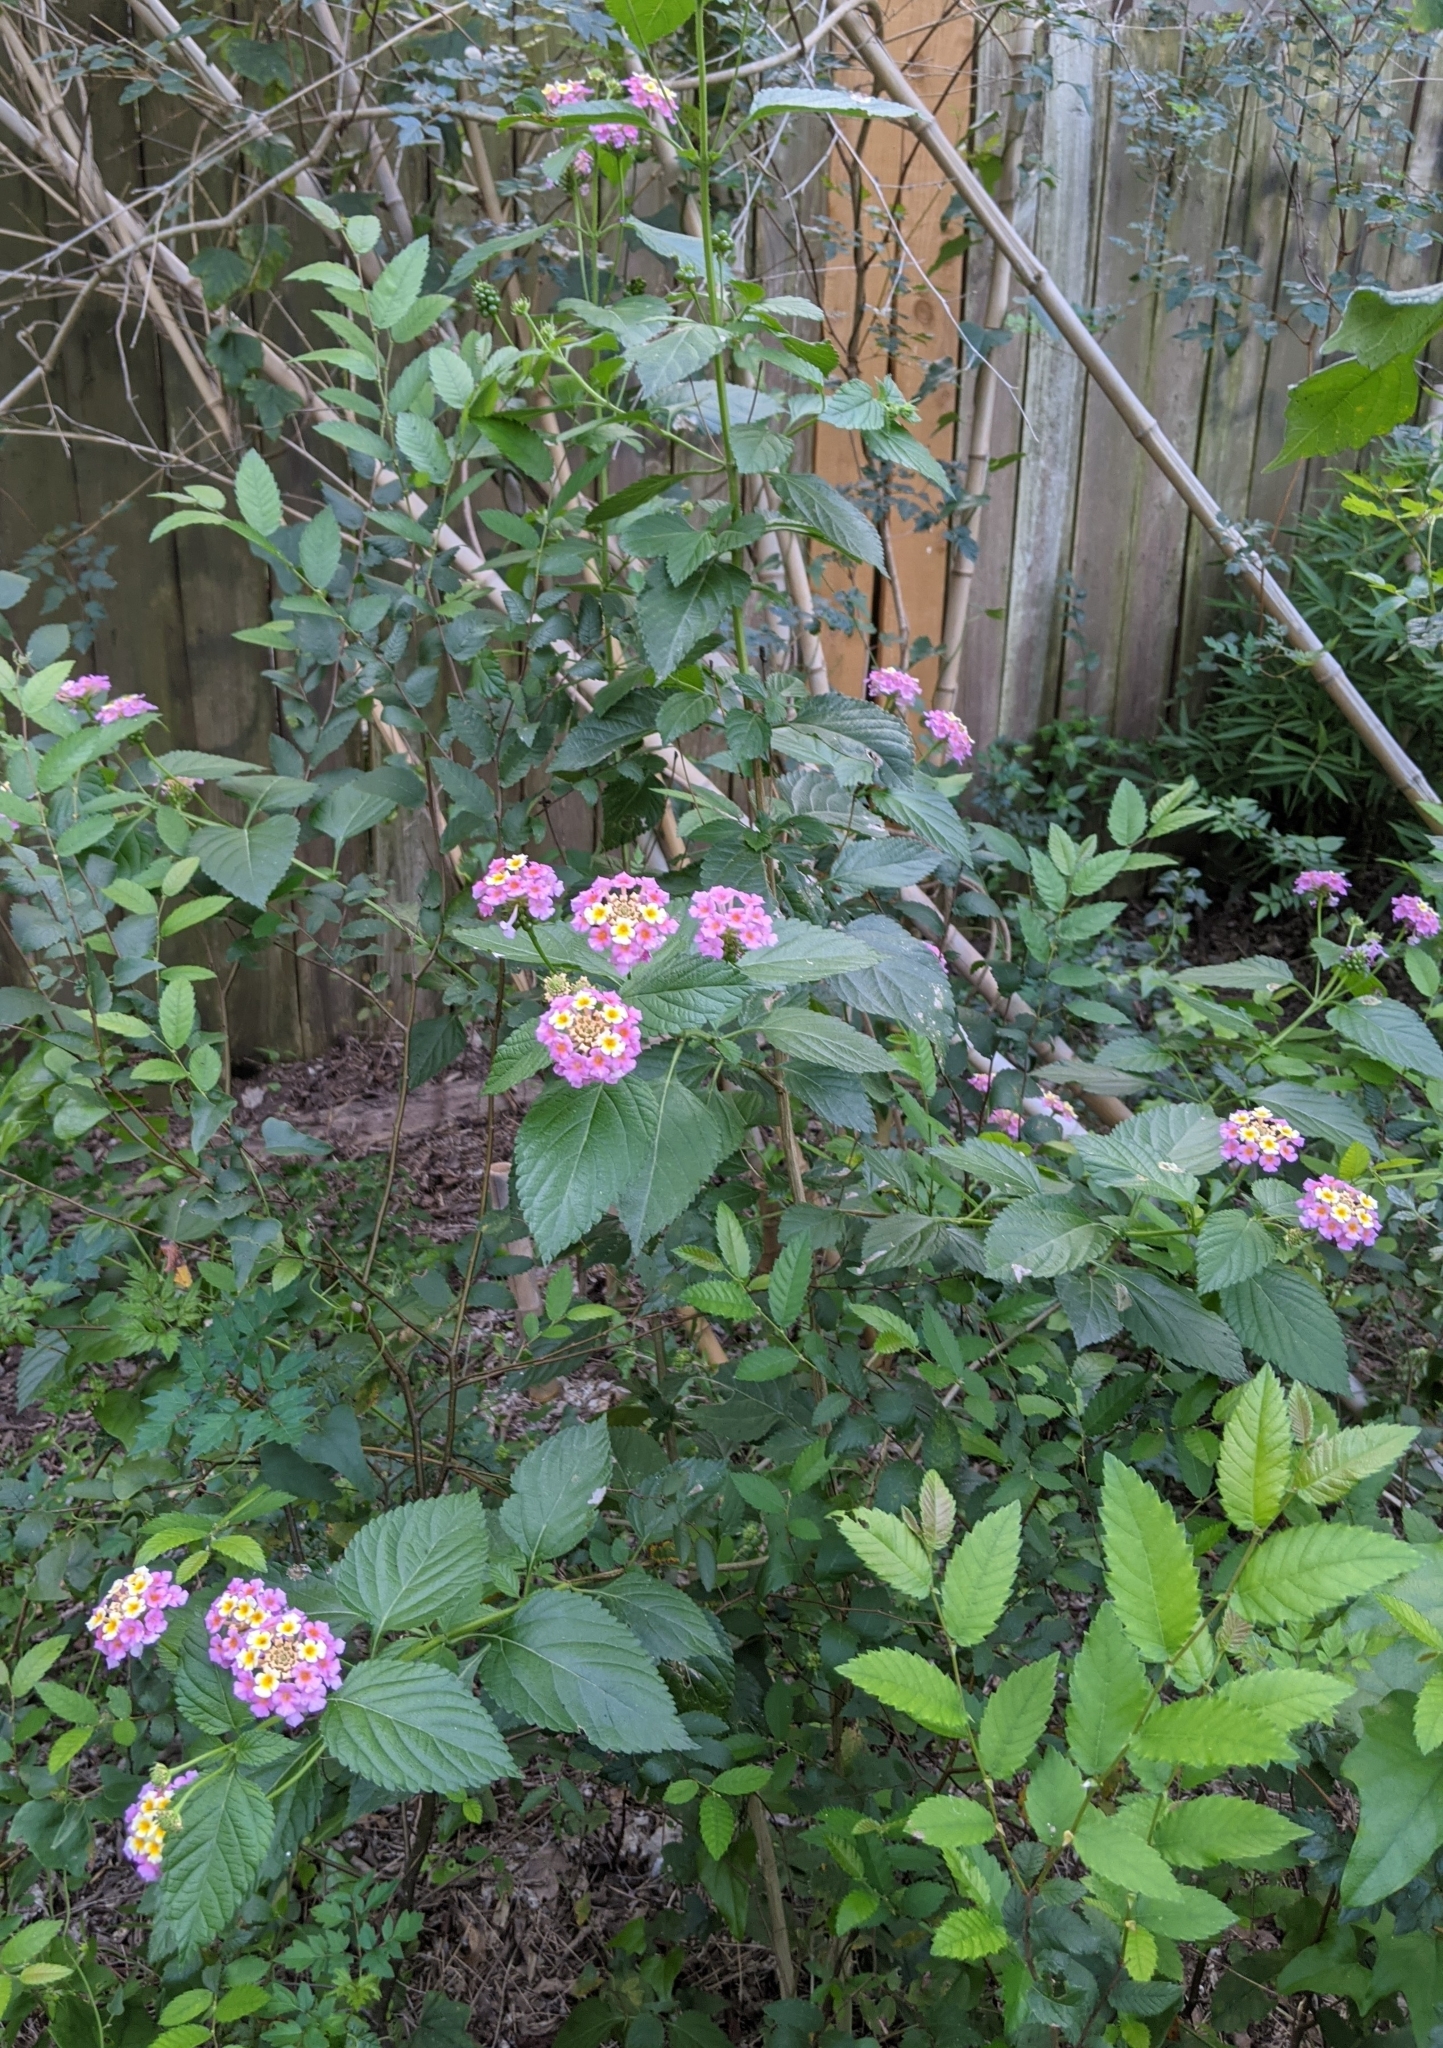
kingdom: Plantae
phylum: Tracheophyta
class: Magnoliopsida
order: Lamiales
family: Verbenaceae
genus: Lantana
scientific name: Lantana strigocamara
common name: Lantana
